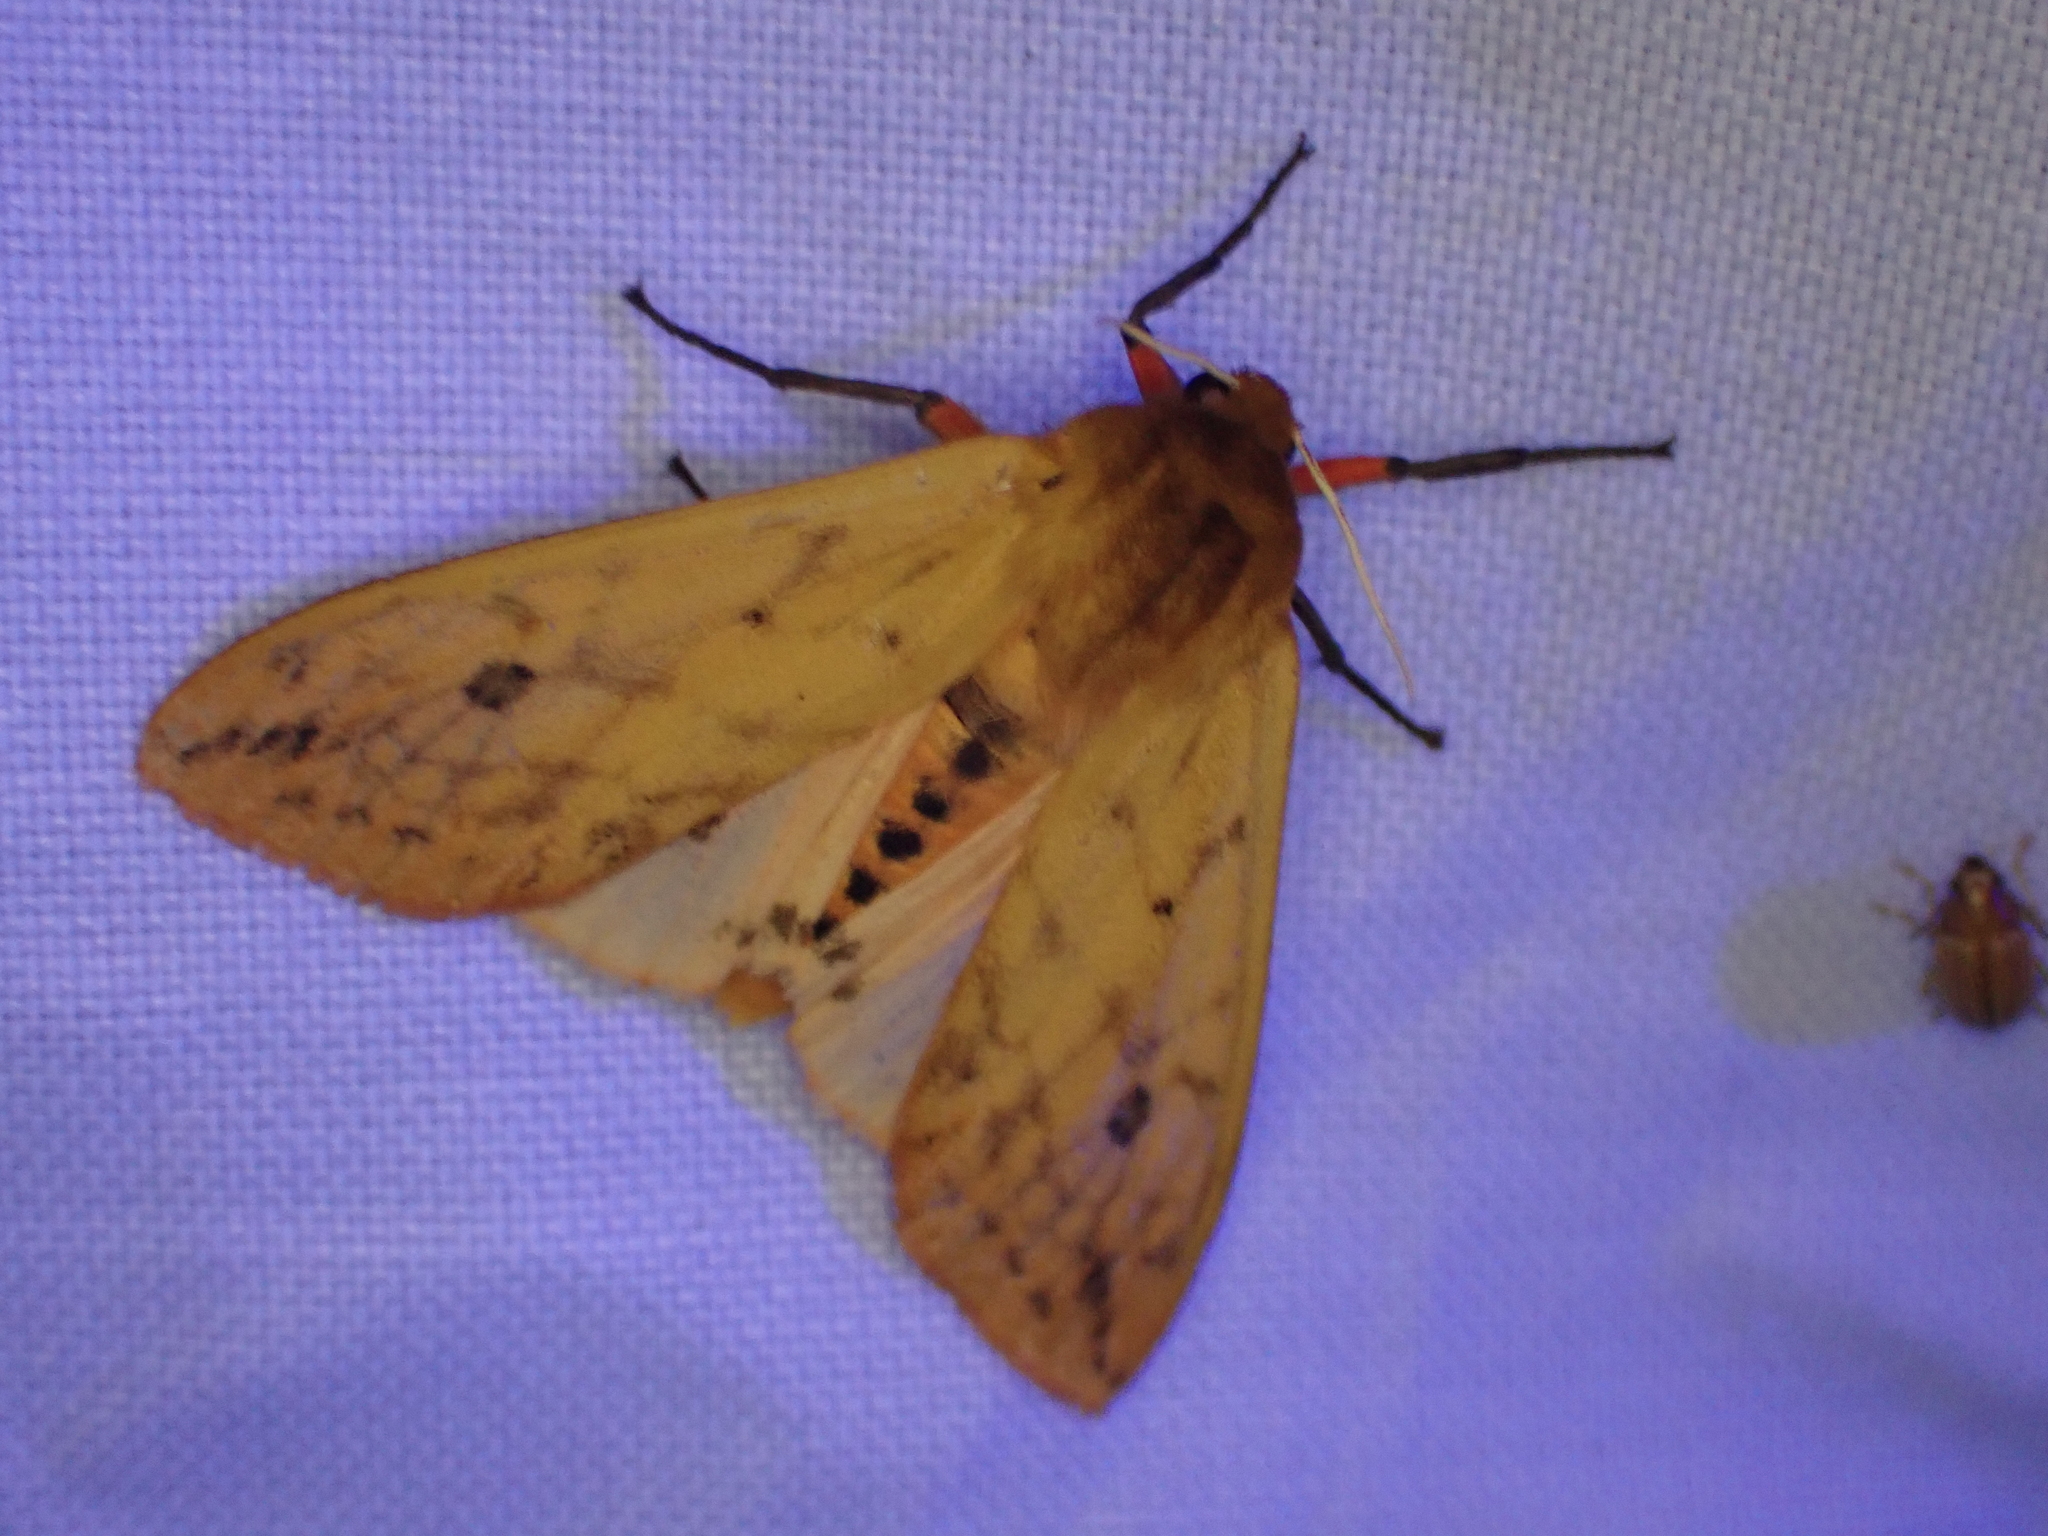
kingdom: Animalia
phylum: Arthropoda
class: Insecta
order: Lepidoptera
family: Erebidae
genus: Pyrrharctia
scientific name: Pyrrharctia isabella
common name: Isabella tiger moth
